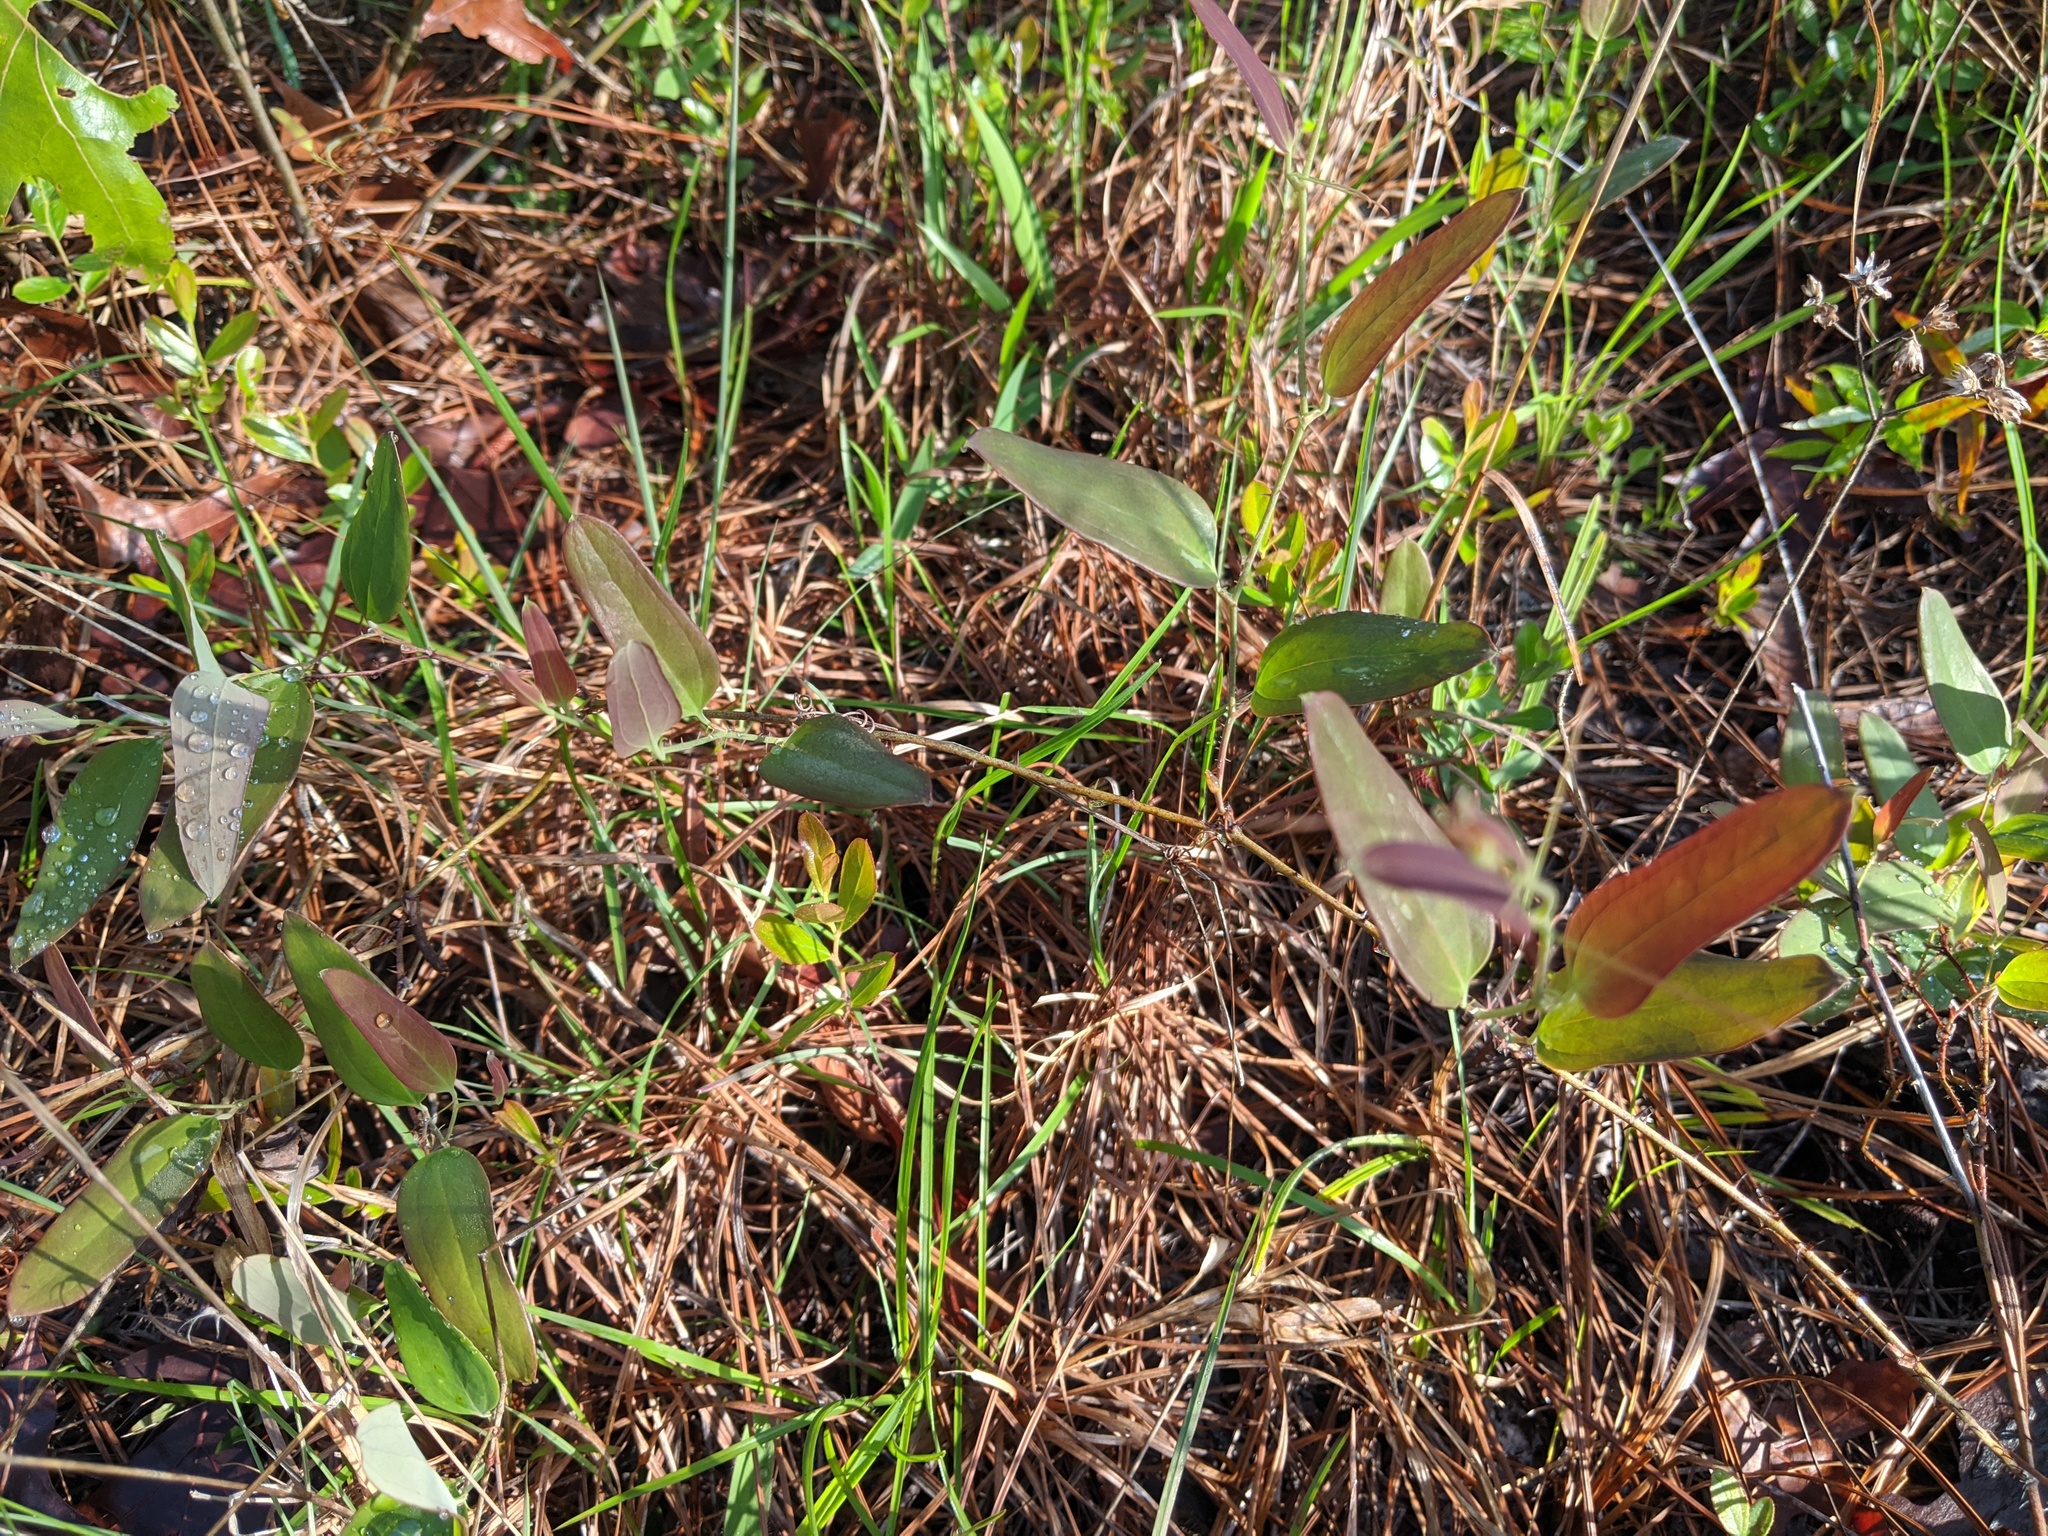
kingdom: Plantae
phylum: Tracheophyta
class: Liliopsida
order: Liliales
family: Smilacaceae
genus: Smilax
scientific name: Smilax glauca
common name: Cat greenbrier
